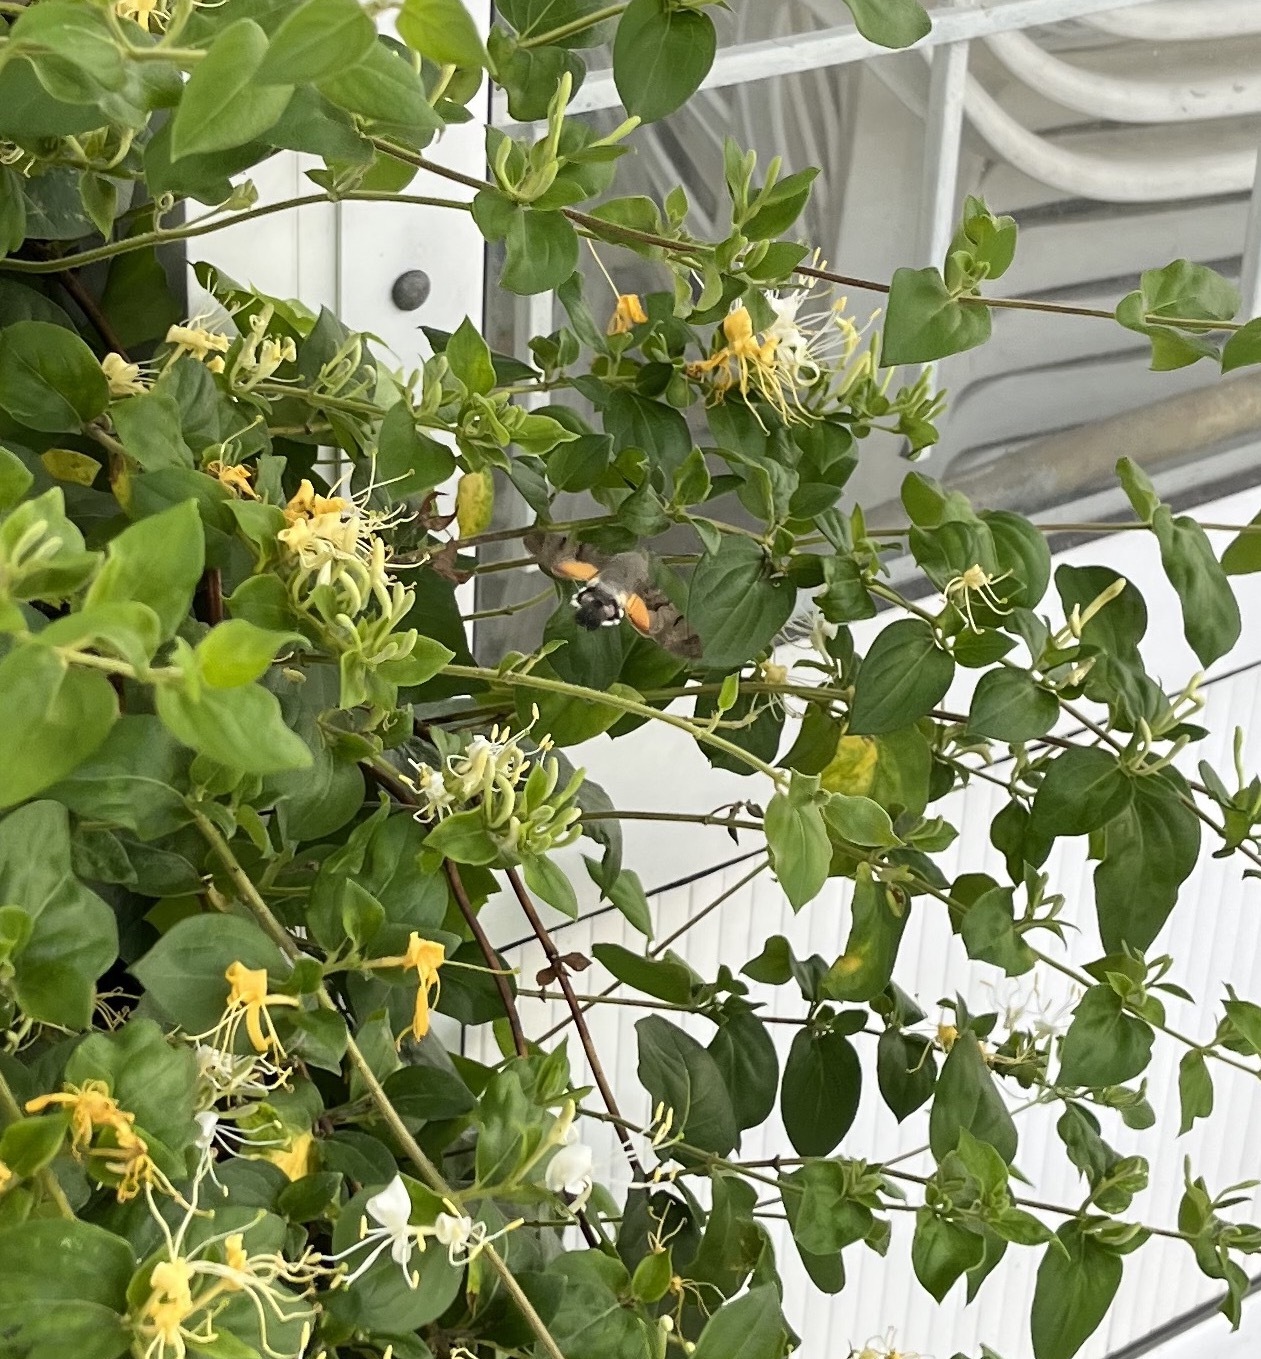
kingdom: Animalia
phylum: Arthropoda
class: Insecta
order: Lepidoptera
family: Sphingidae
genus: Macroglossum
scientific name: Macroglossum stellatarum
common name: Humming-bird hawk-moth
